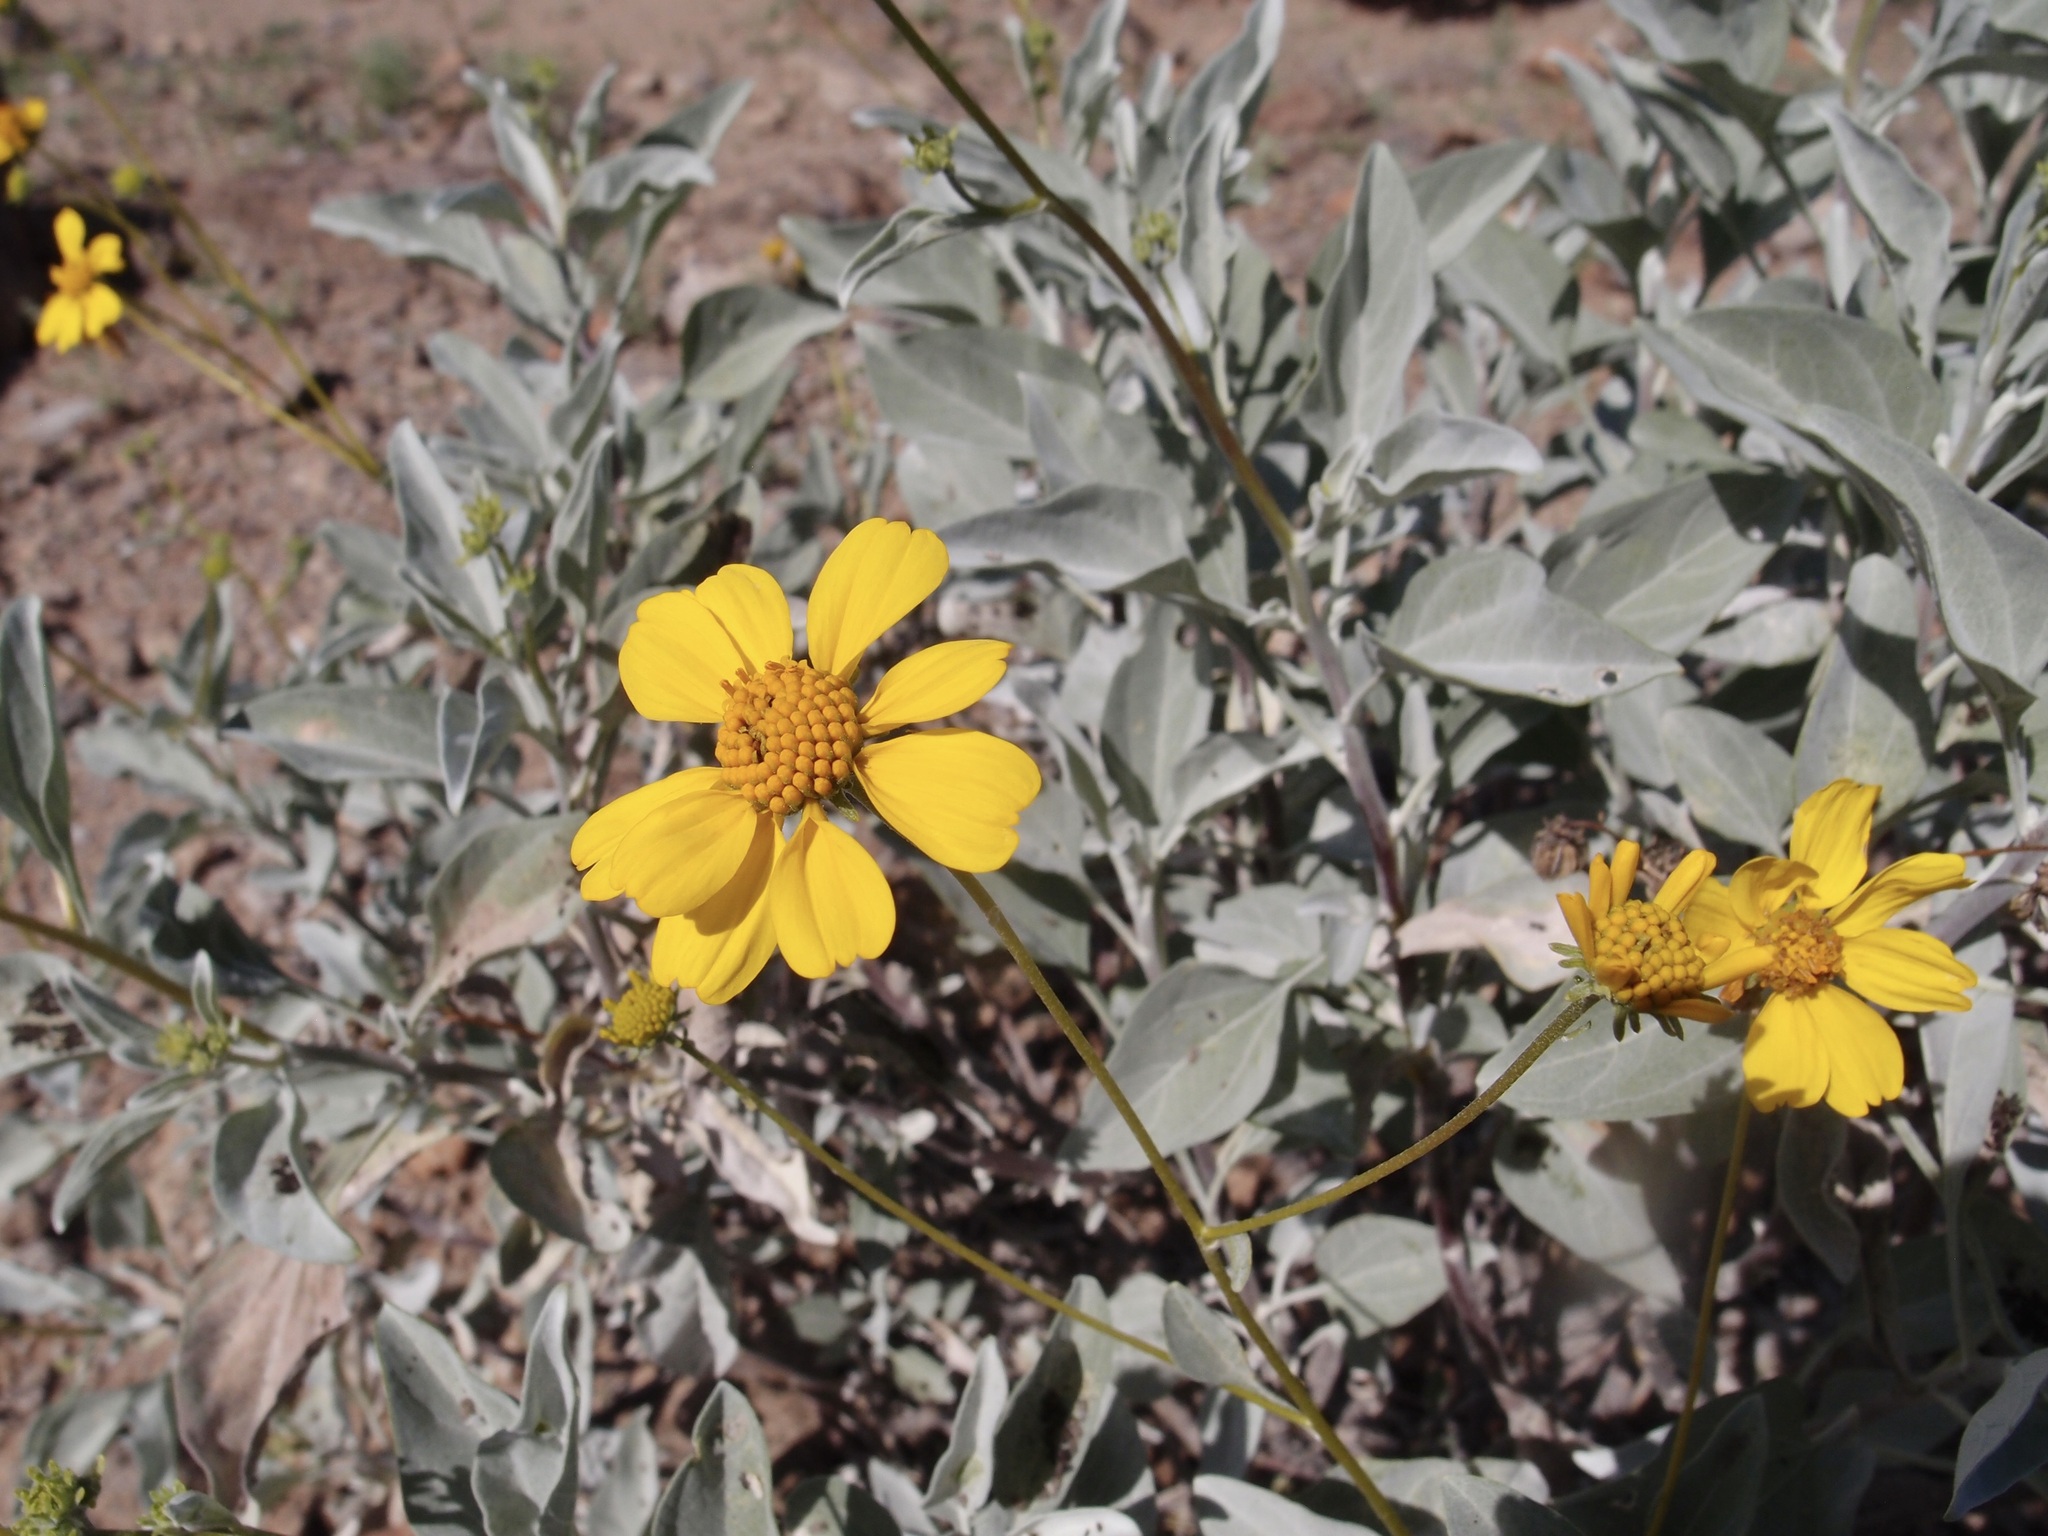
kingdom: Plantae
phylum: Tracheophyta
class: Magnoliopsida
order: Asterales
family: Asteraceae
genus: Encelia
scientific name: Encelia farinosa
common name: Brittlebush
